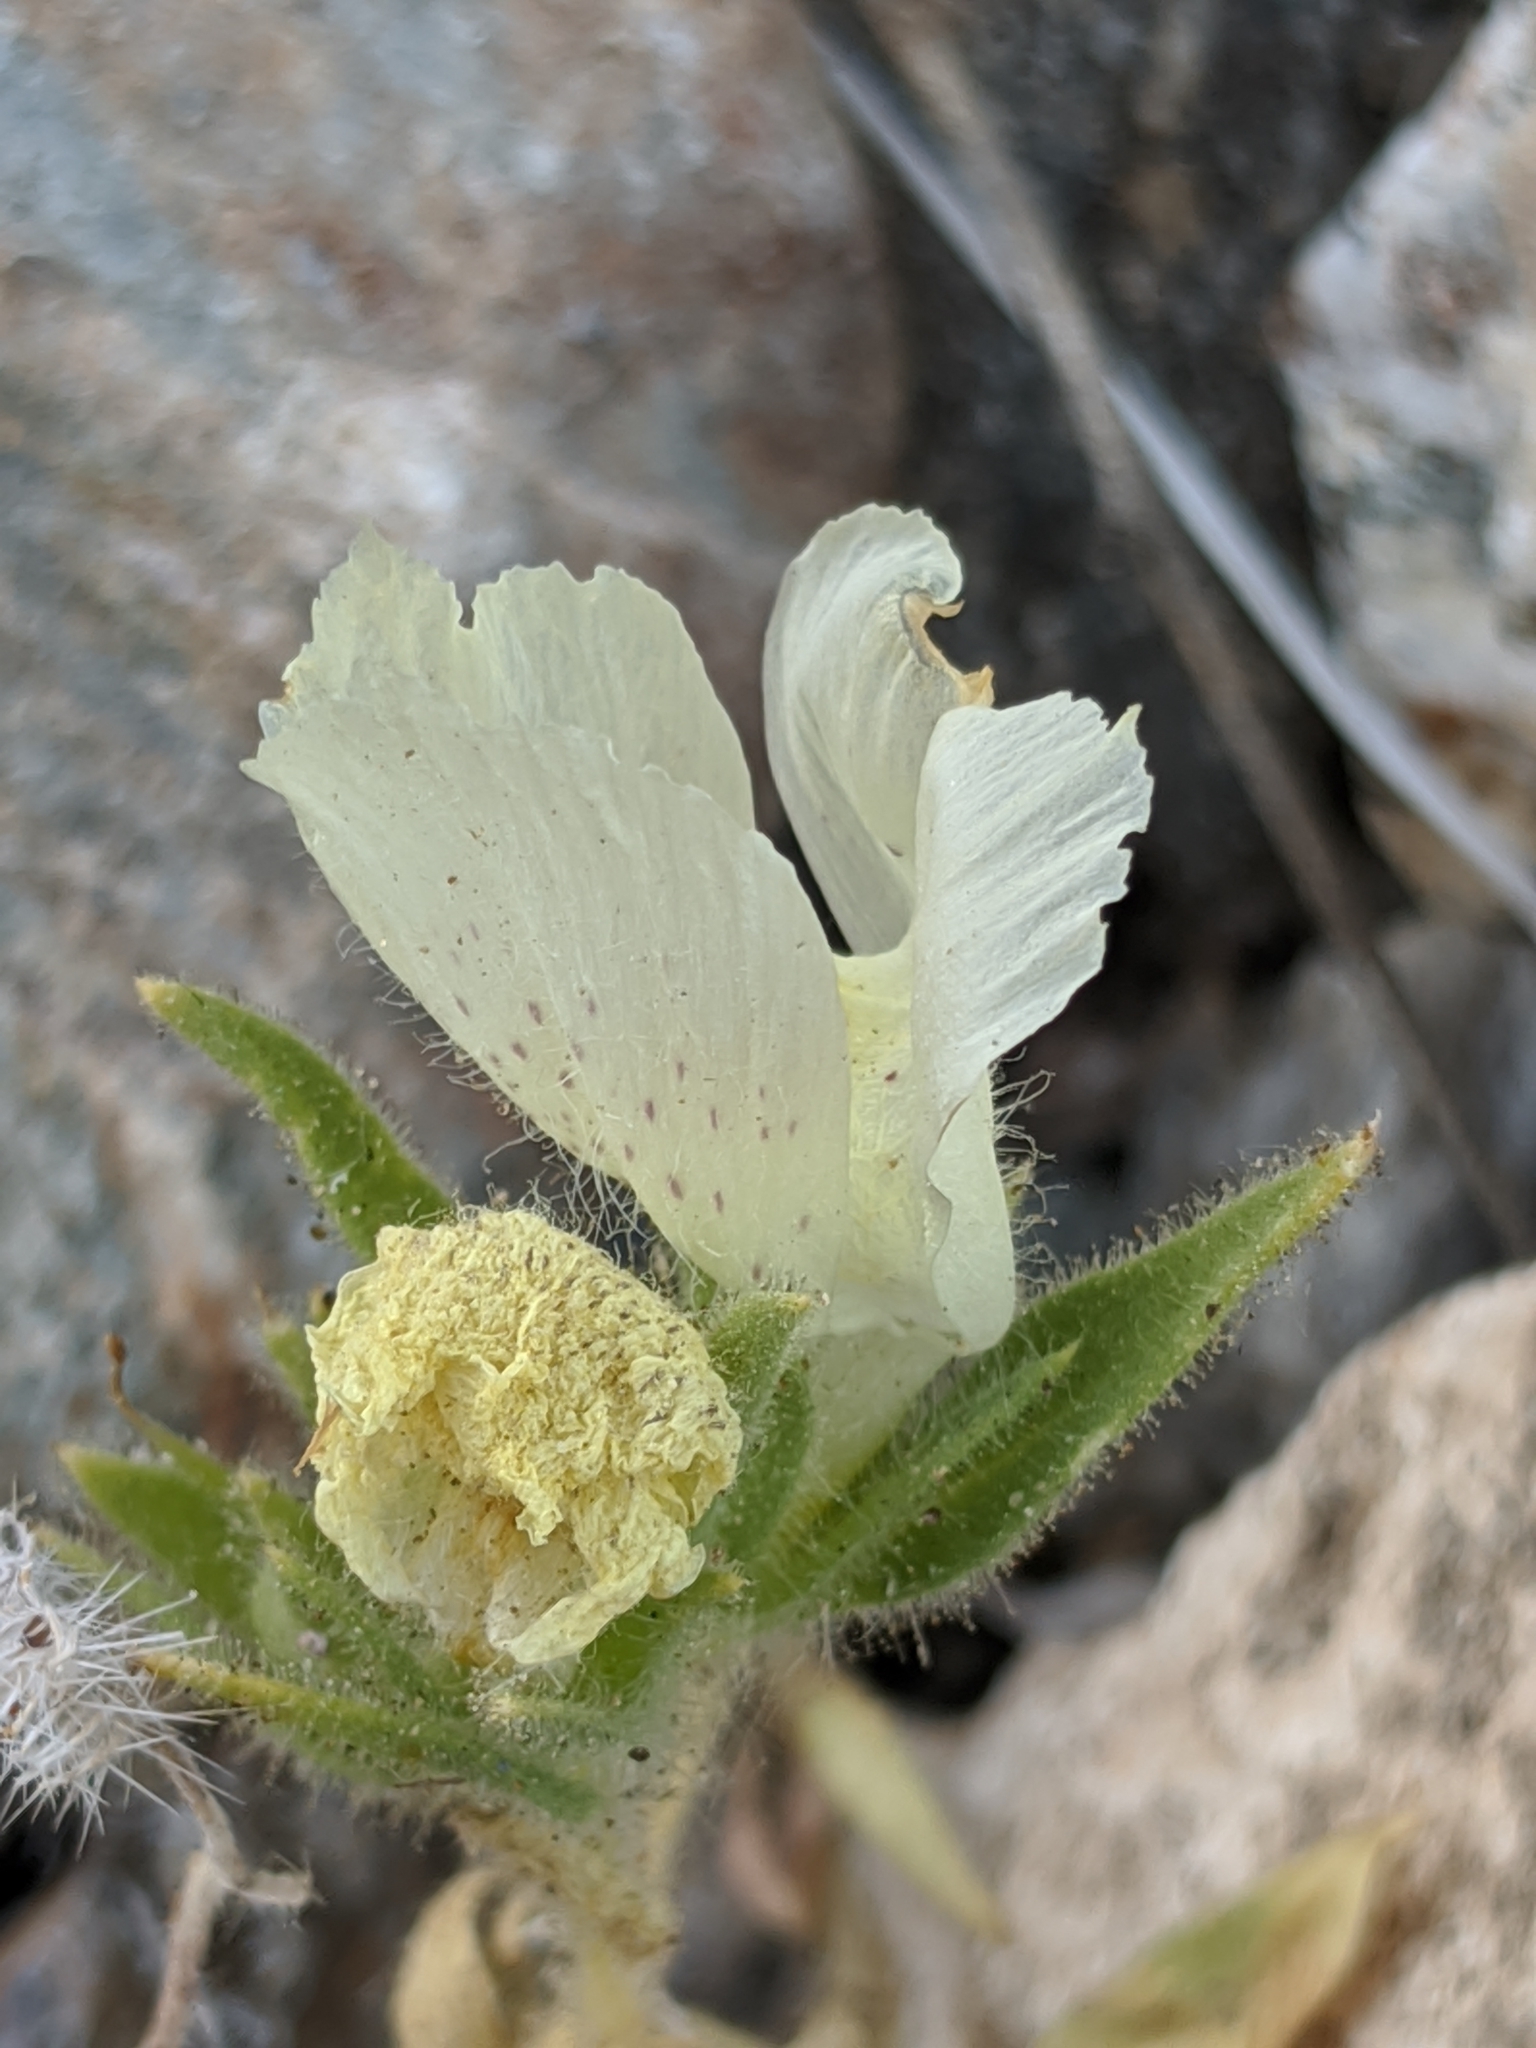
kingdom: Plantae
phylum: Tracheophyta
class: Magnoliopsida
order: Lamiales
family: Plantaginaceae
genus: Mohavea
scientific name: Mohavea confertiflora
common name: Ghost flower
